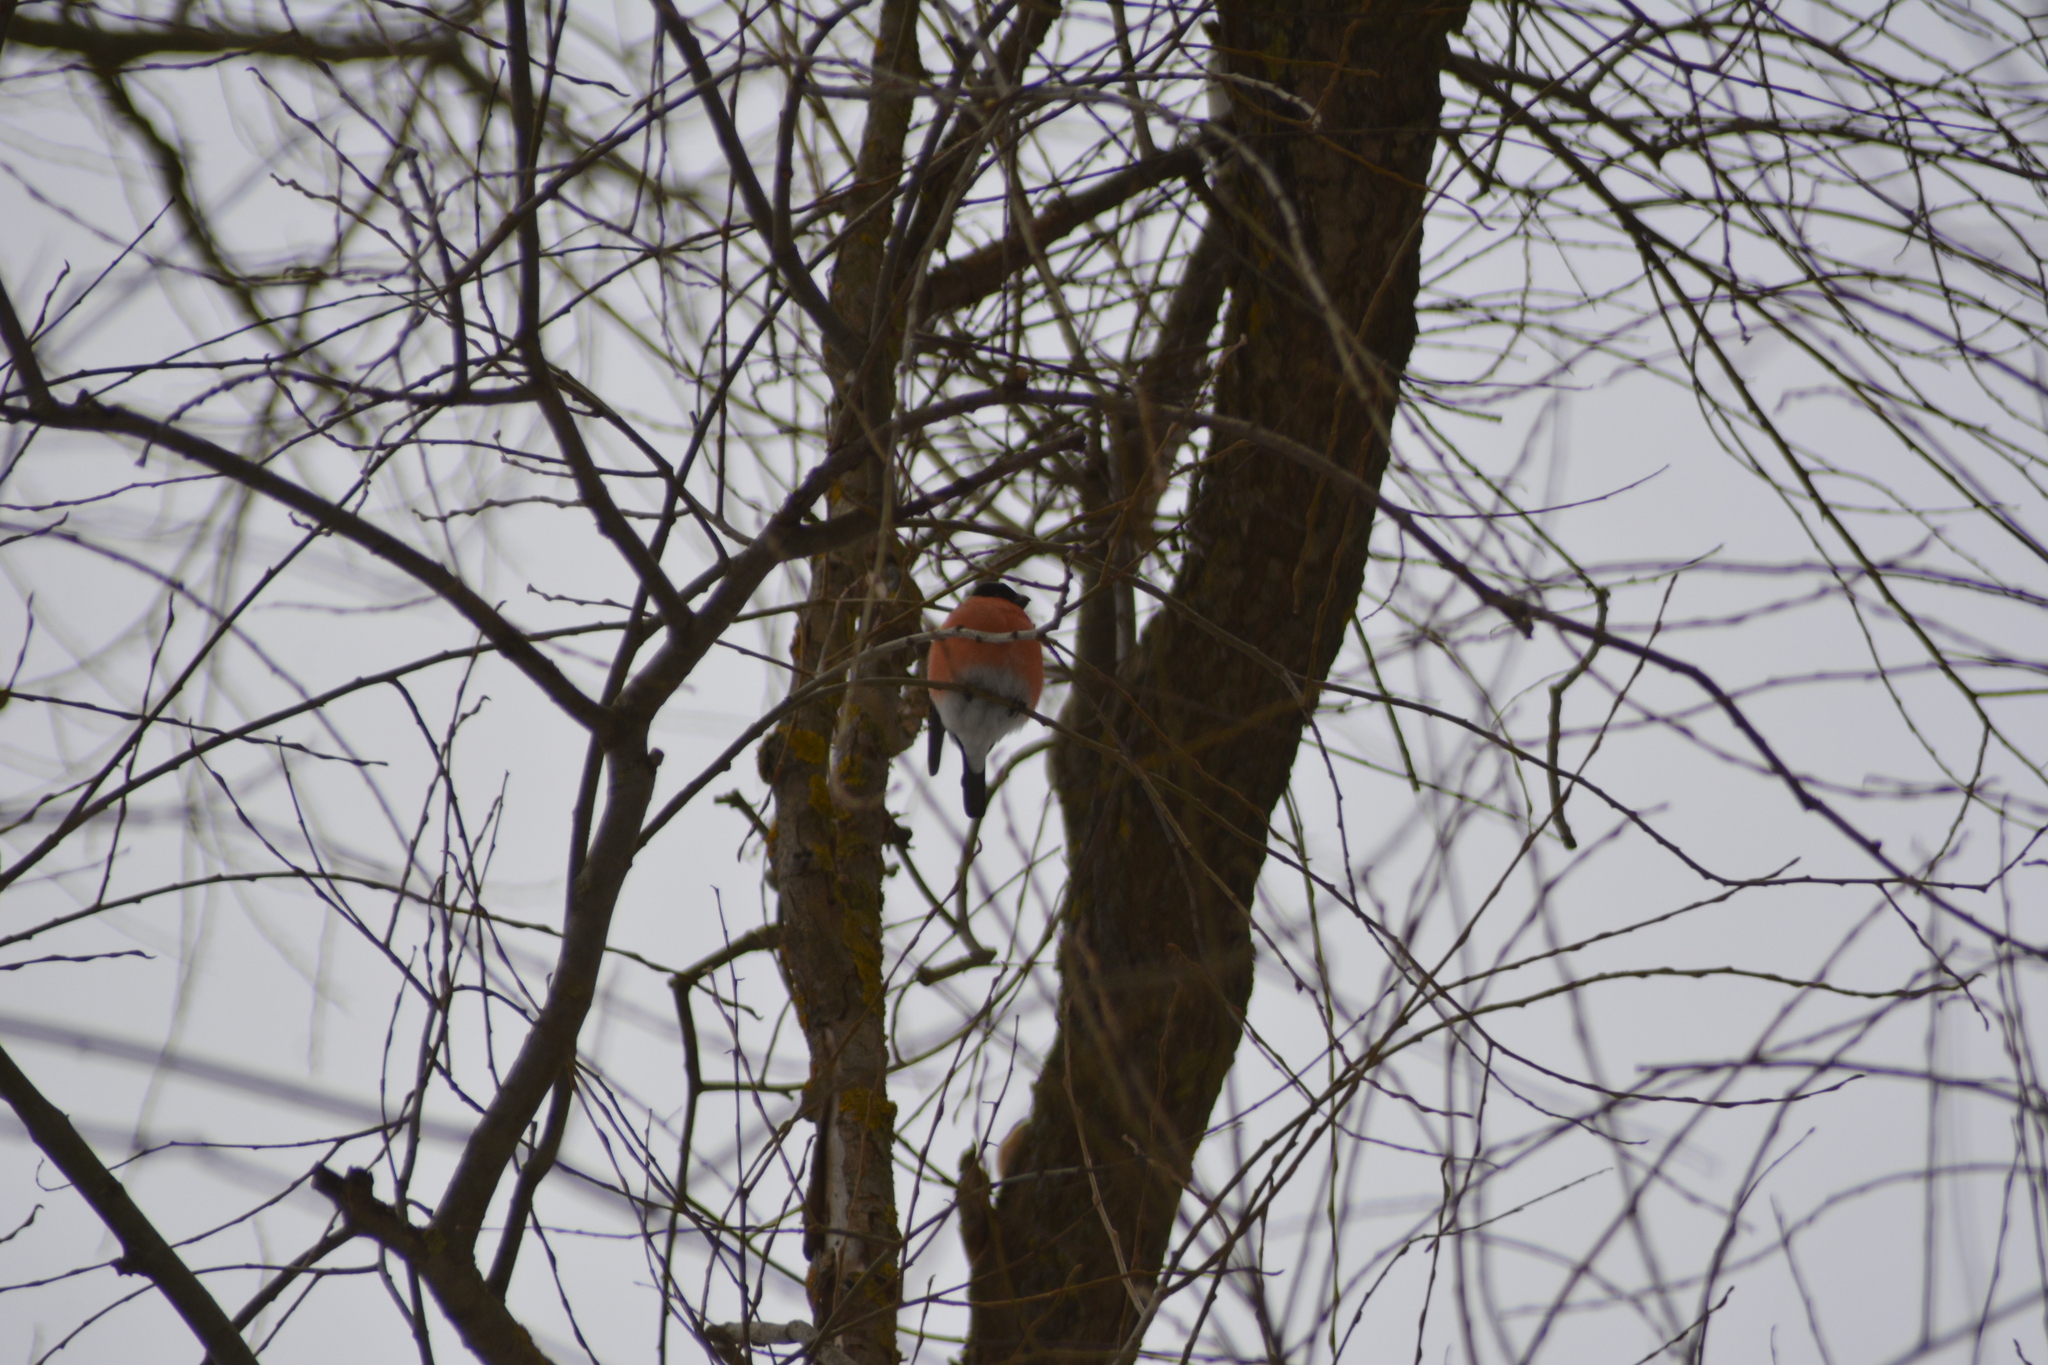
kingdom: Animalia
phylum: Chordata
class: Aves
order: Passeriformes
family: Fringillidae
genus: Pyrrhula
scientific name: Pyrrhula pyrrhula
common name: Eurasian bullfinch
